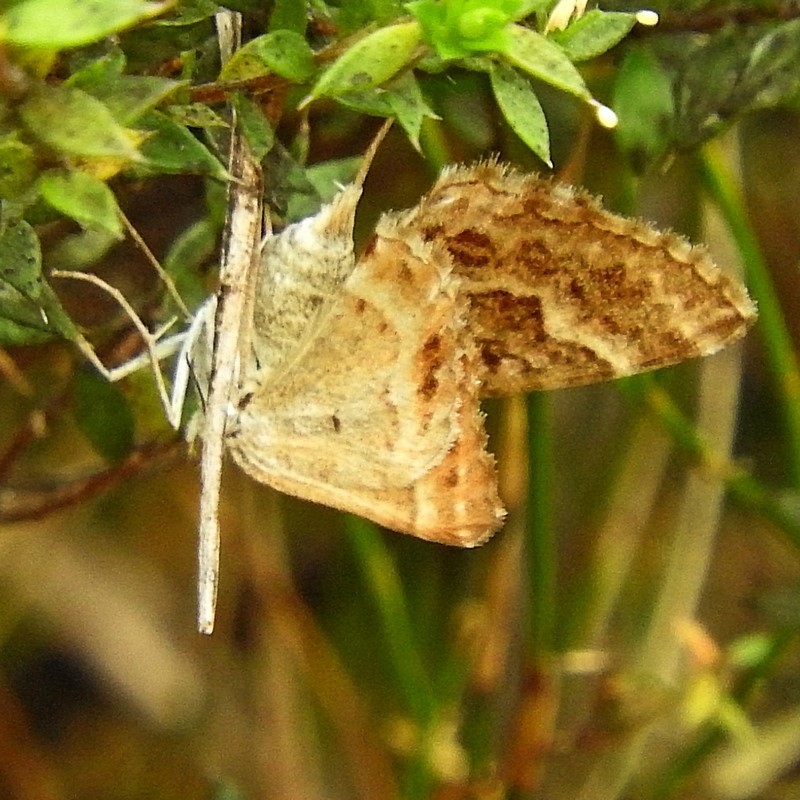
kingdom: Animalia
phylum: Arthropoda
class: Insecta
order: Lepidoptera
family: Geometridae
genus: Chrysolarentia
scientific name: Chrysolarentia symphona
